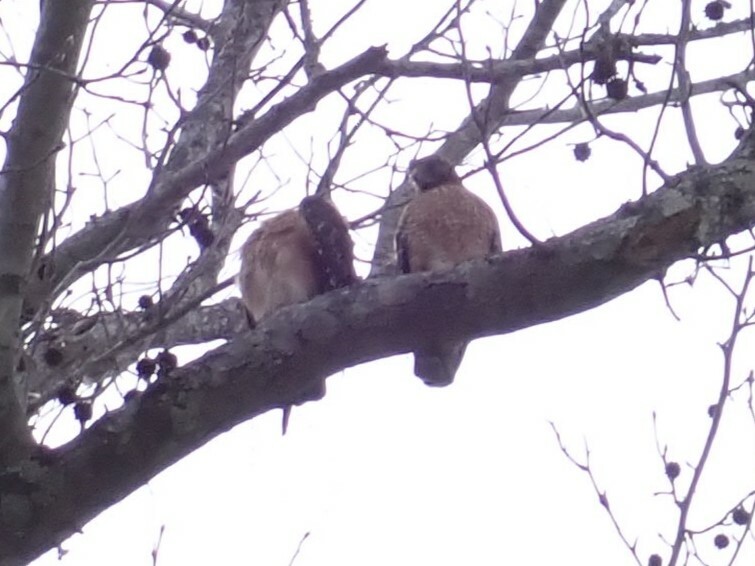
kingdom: Animalia
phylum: Chordata
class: Aves
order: Accipitriformes
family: Accipitridae
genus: Buteo
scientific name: Buteo lineatus
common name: Red-shouldered hawk
